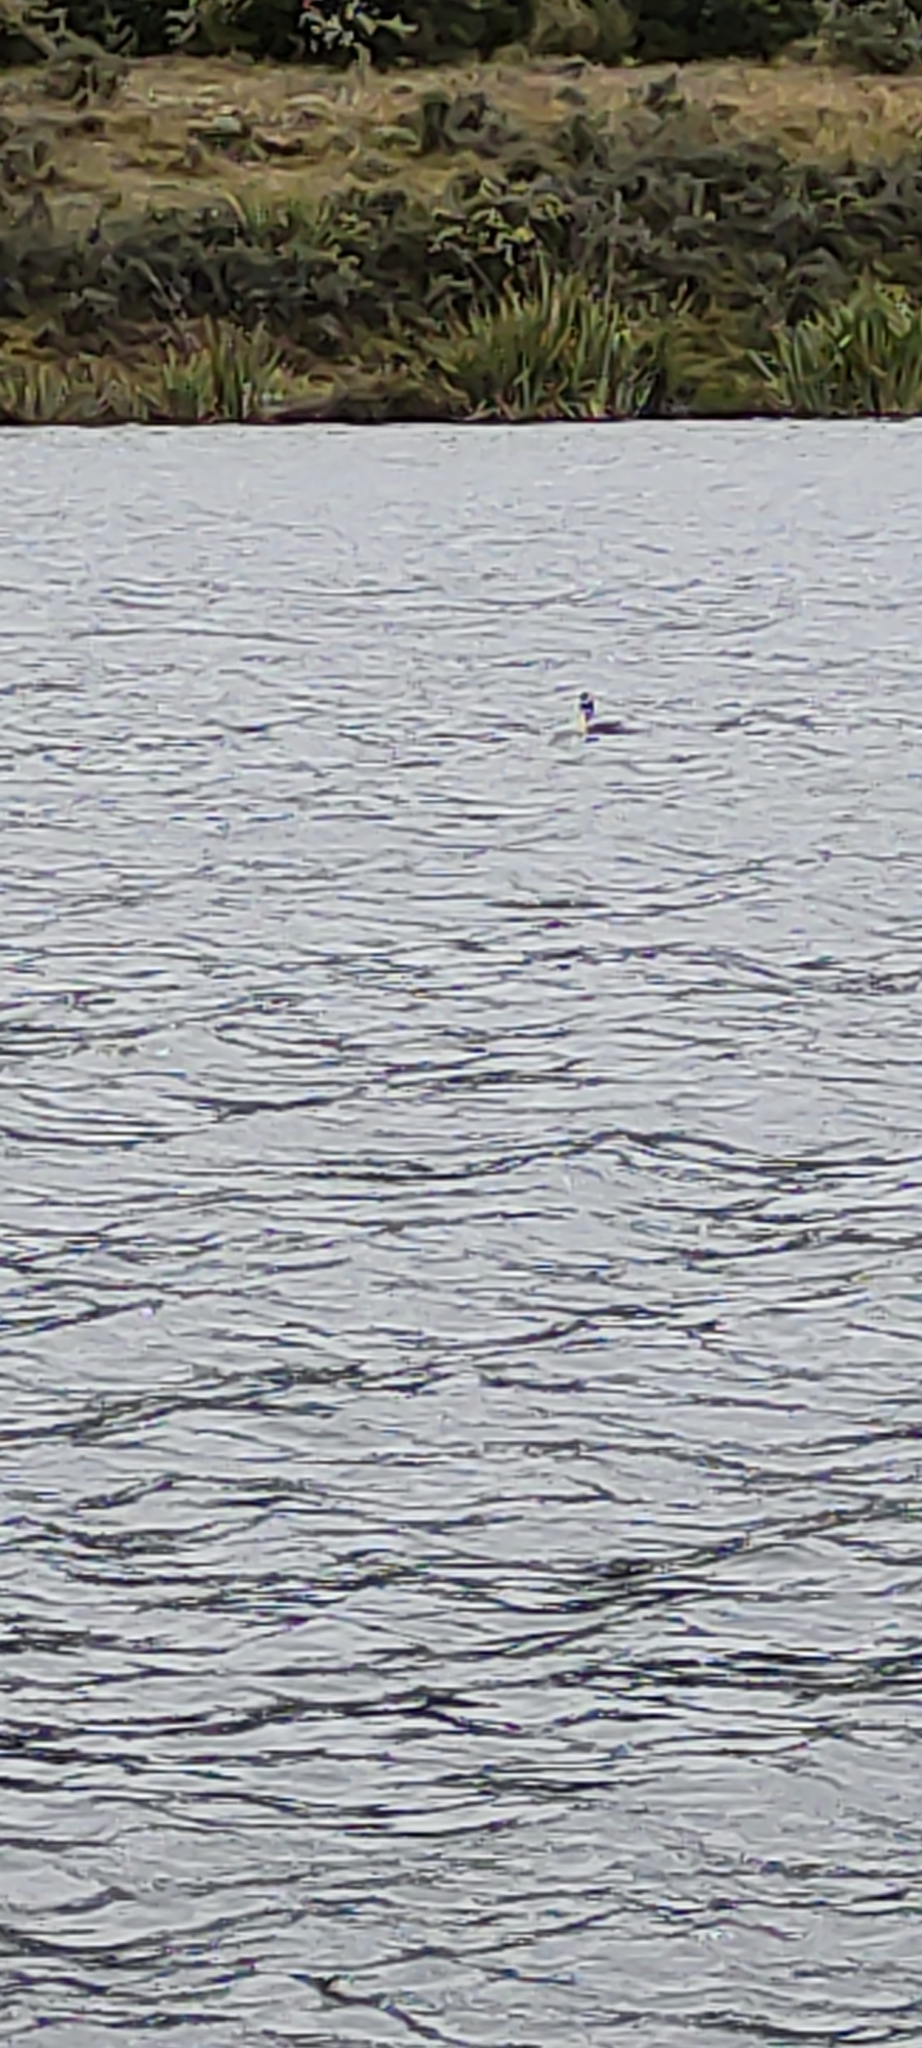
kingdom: Animalia
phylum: Chordata
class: Aves
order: Podicipediformes
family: Podicipedidae
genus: Podiceps
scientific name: Podiceps cristatus
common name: Great crested grebe
